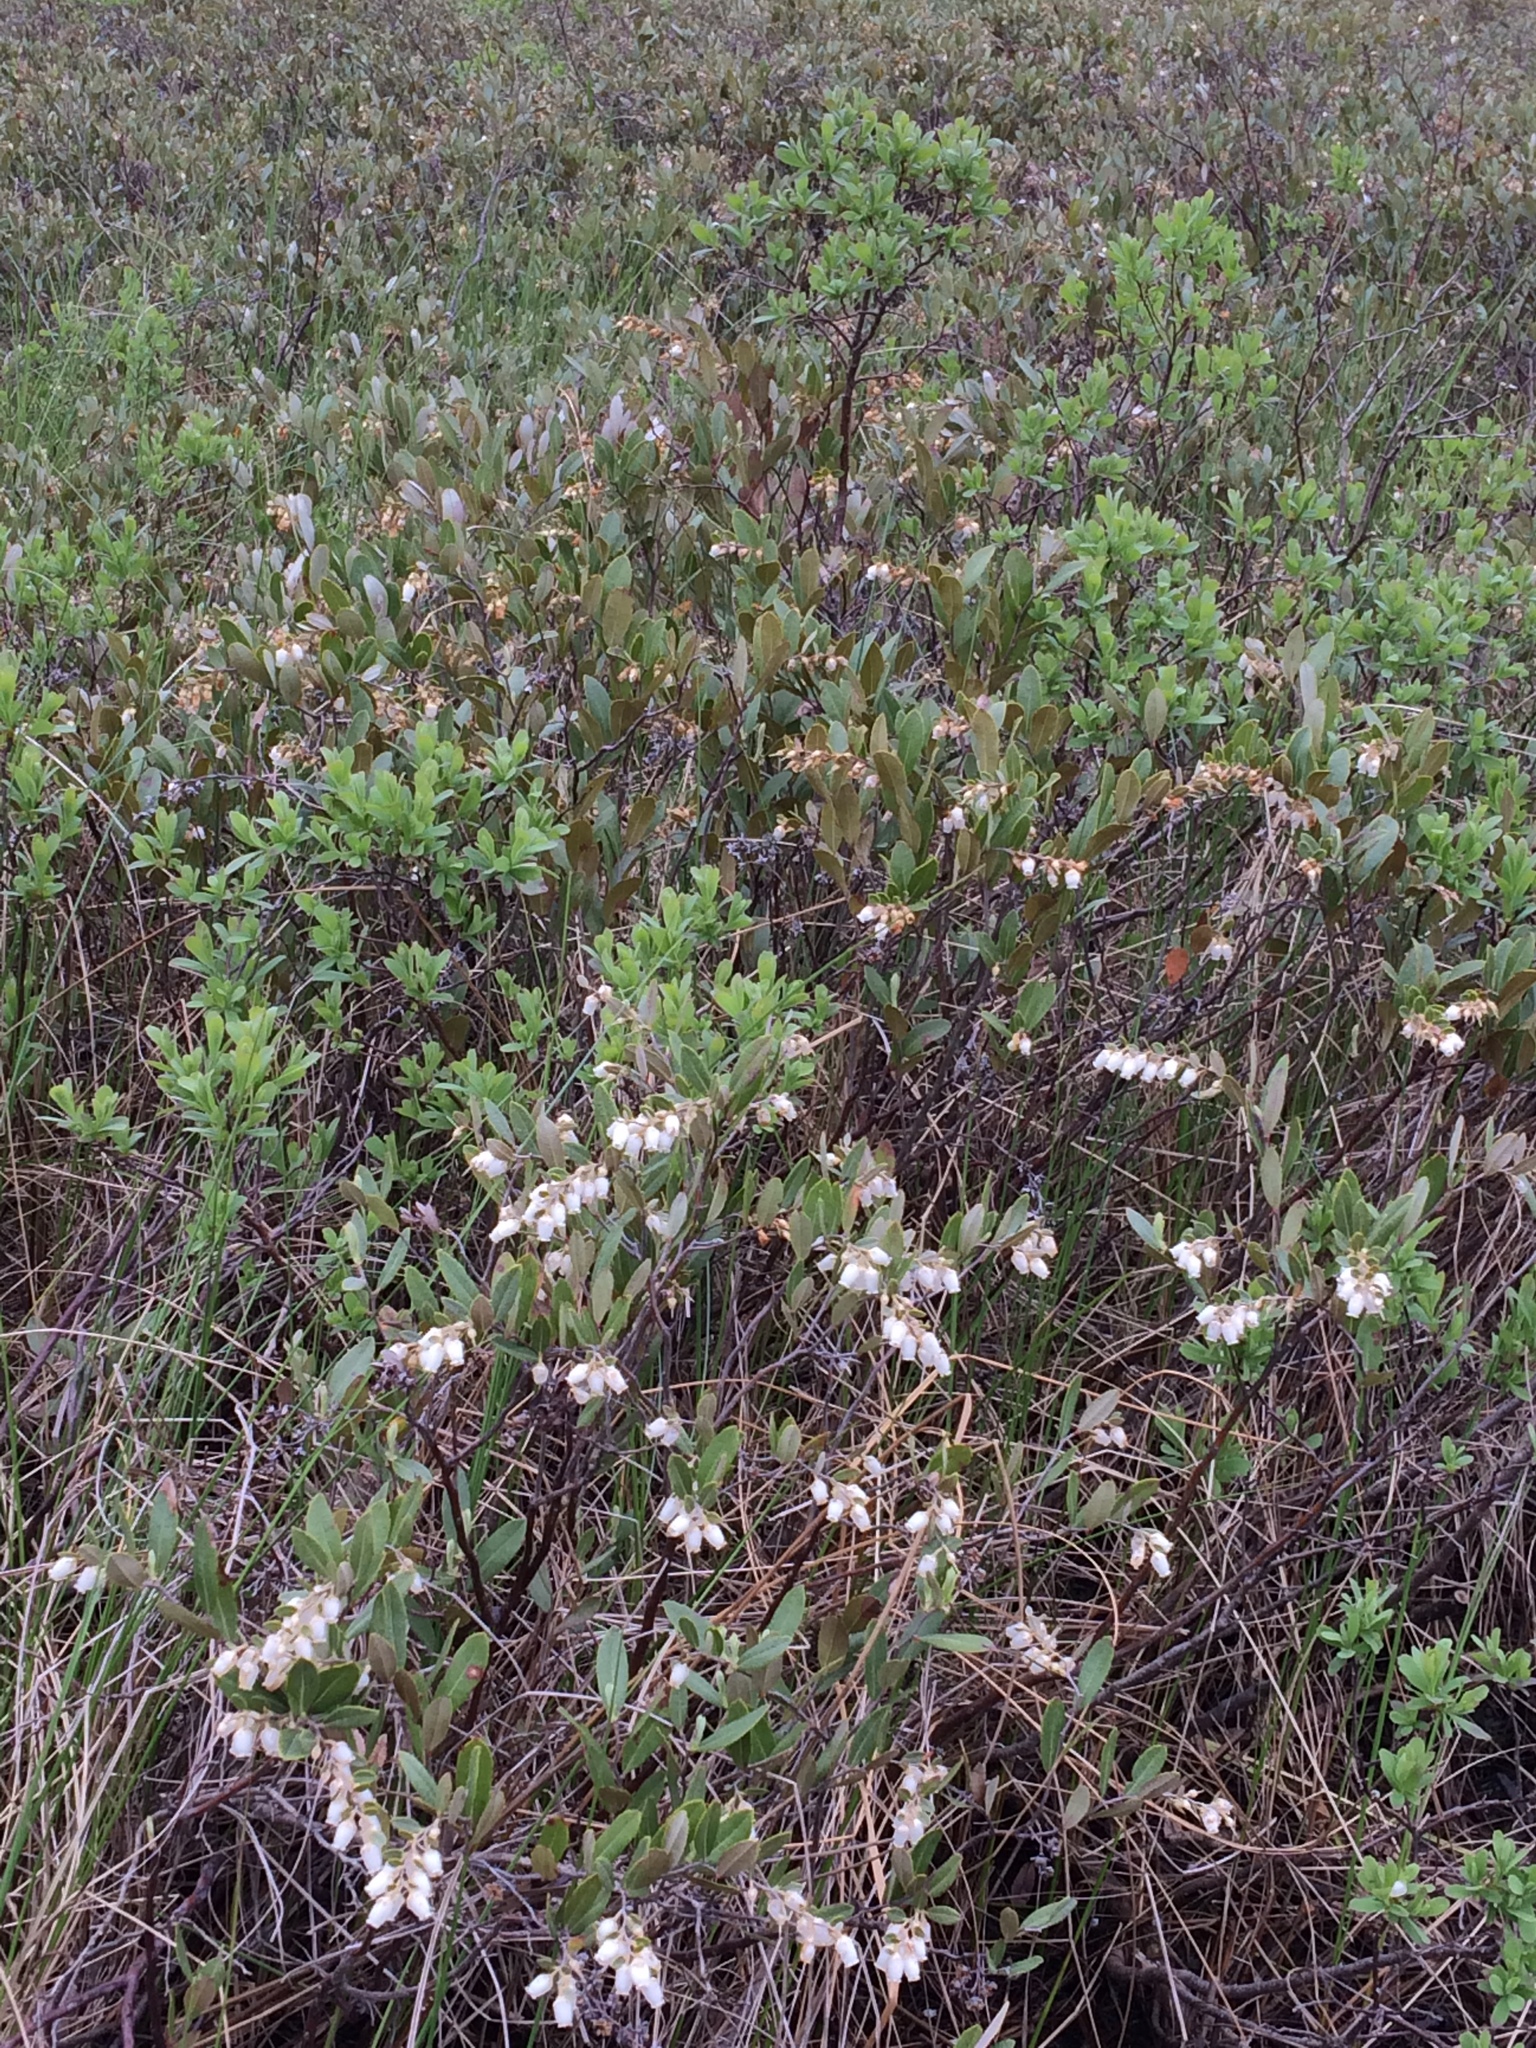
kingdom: Plantae
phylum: Tracheophyta
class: Magnoliopsida
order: Ericales
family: Ericaceae
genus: Chamaedaphne
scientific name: Chamaedaphne calyculata
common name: Leatherleaf
